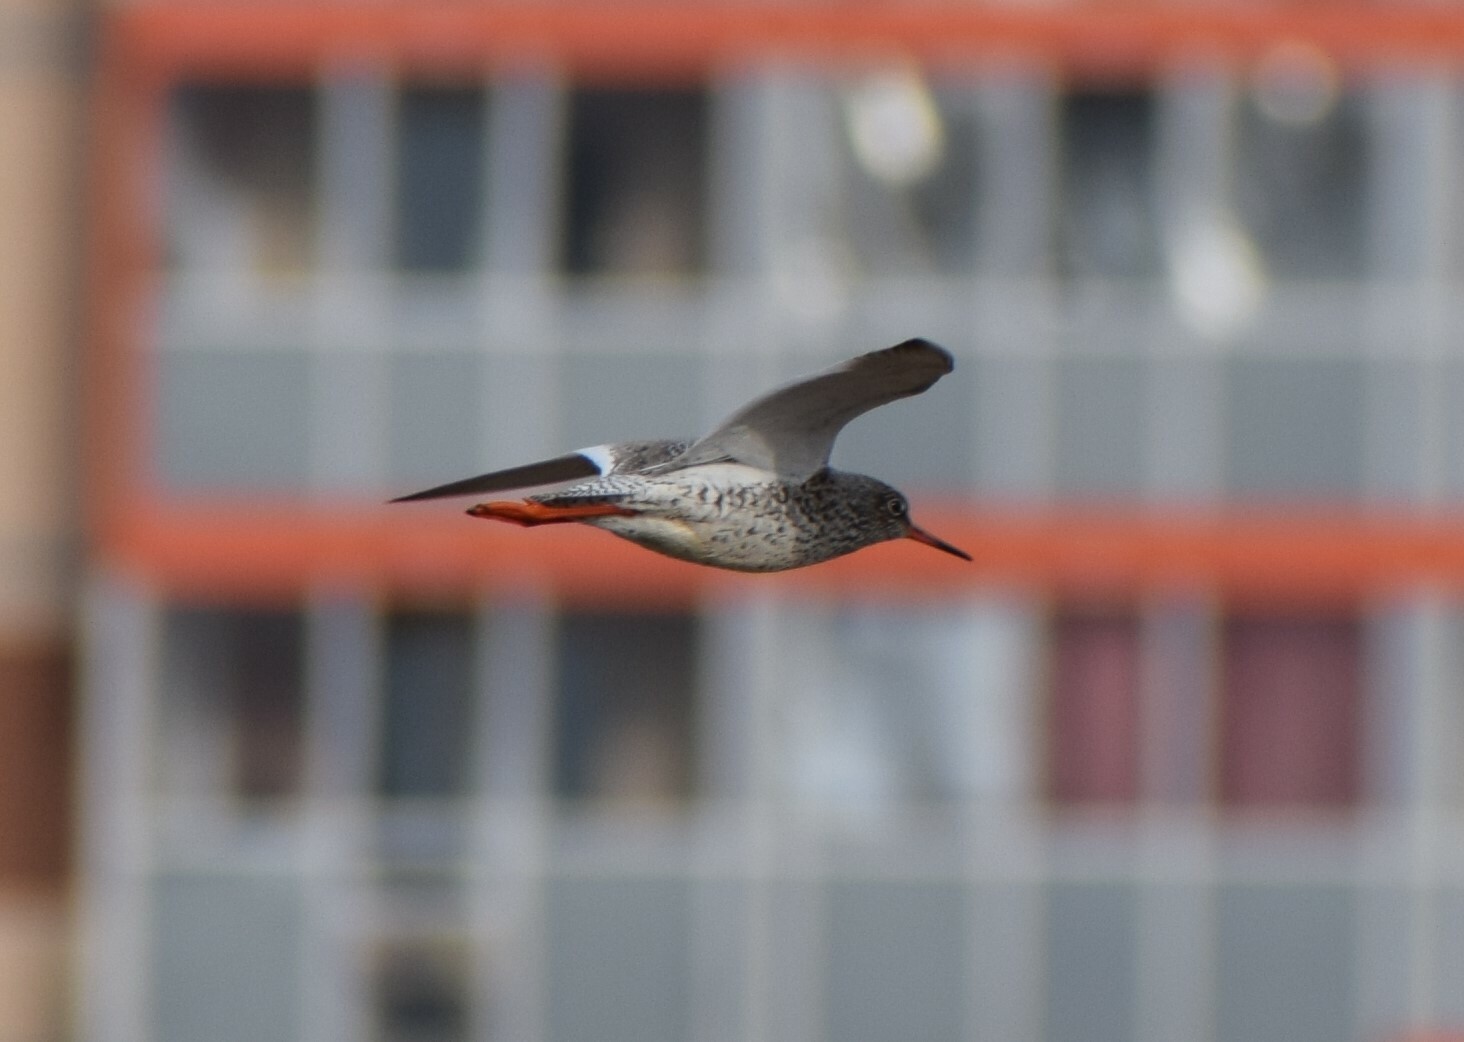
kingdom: Animalia
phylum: Chordata
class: Aves
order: Charadriiformes
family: Scolopacidae
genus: Tringa
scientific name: Tringa totanus
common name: Common redshank
